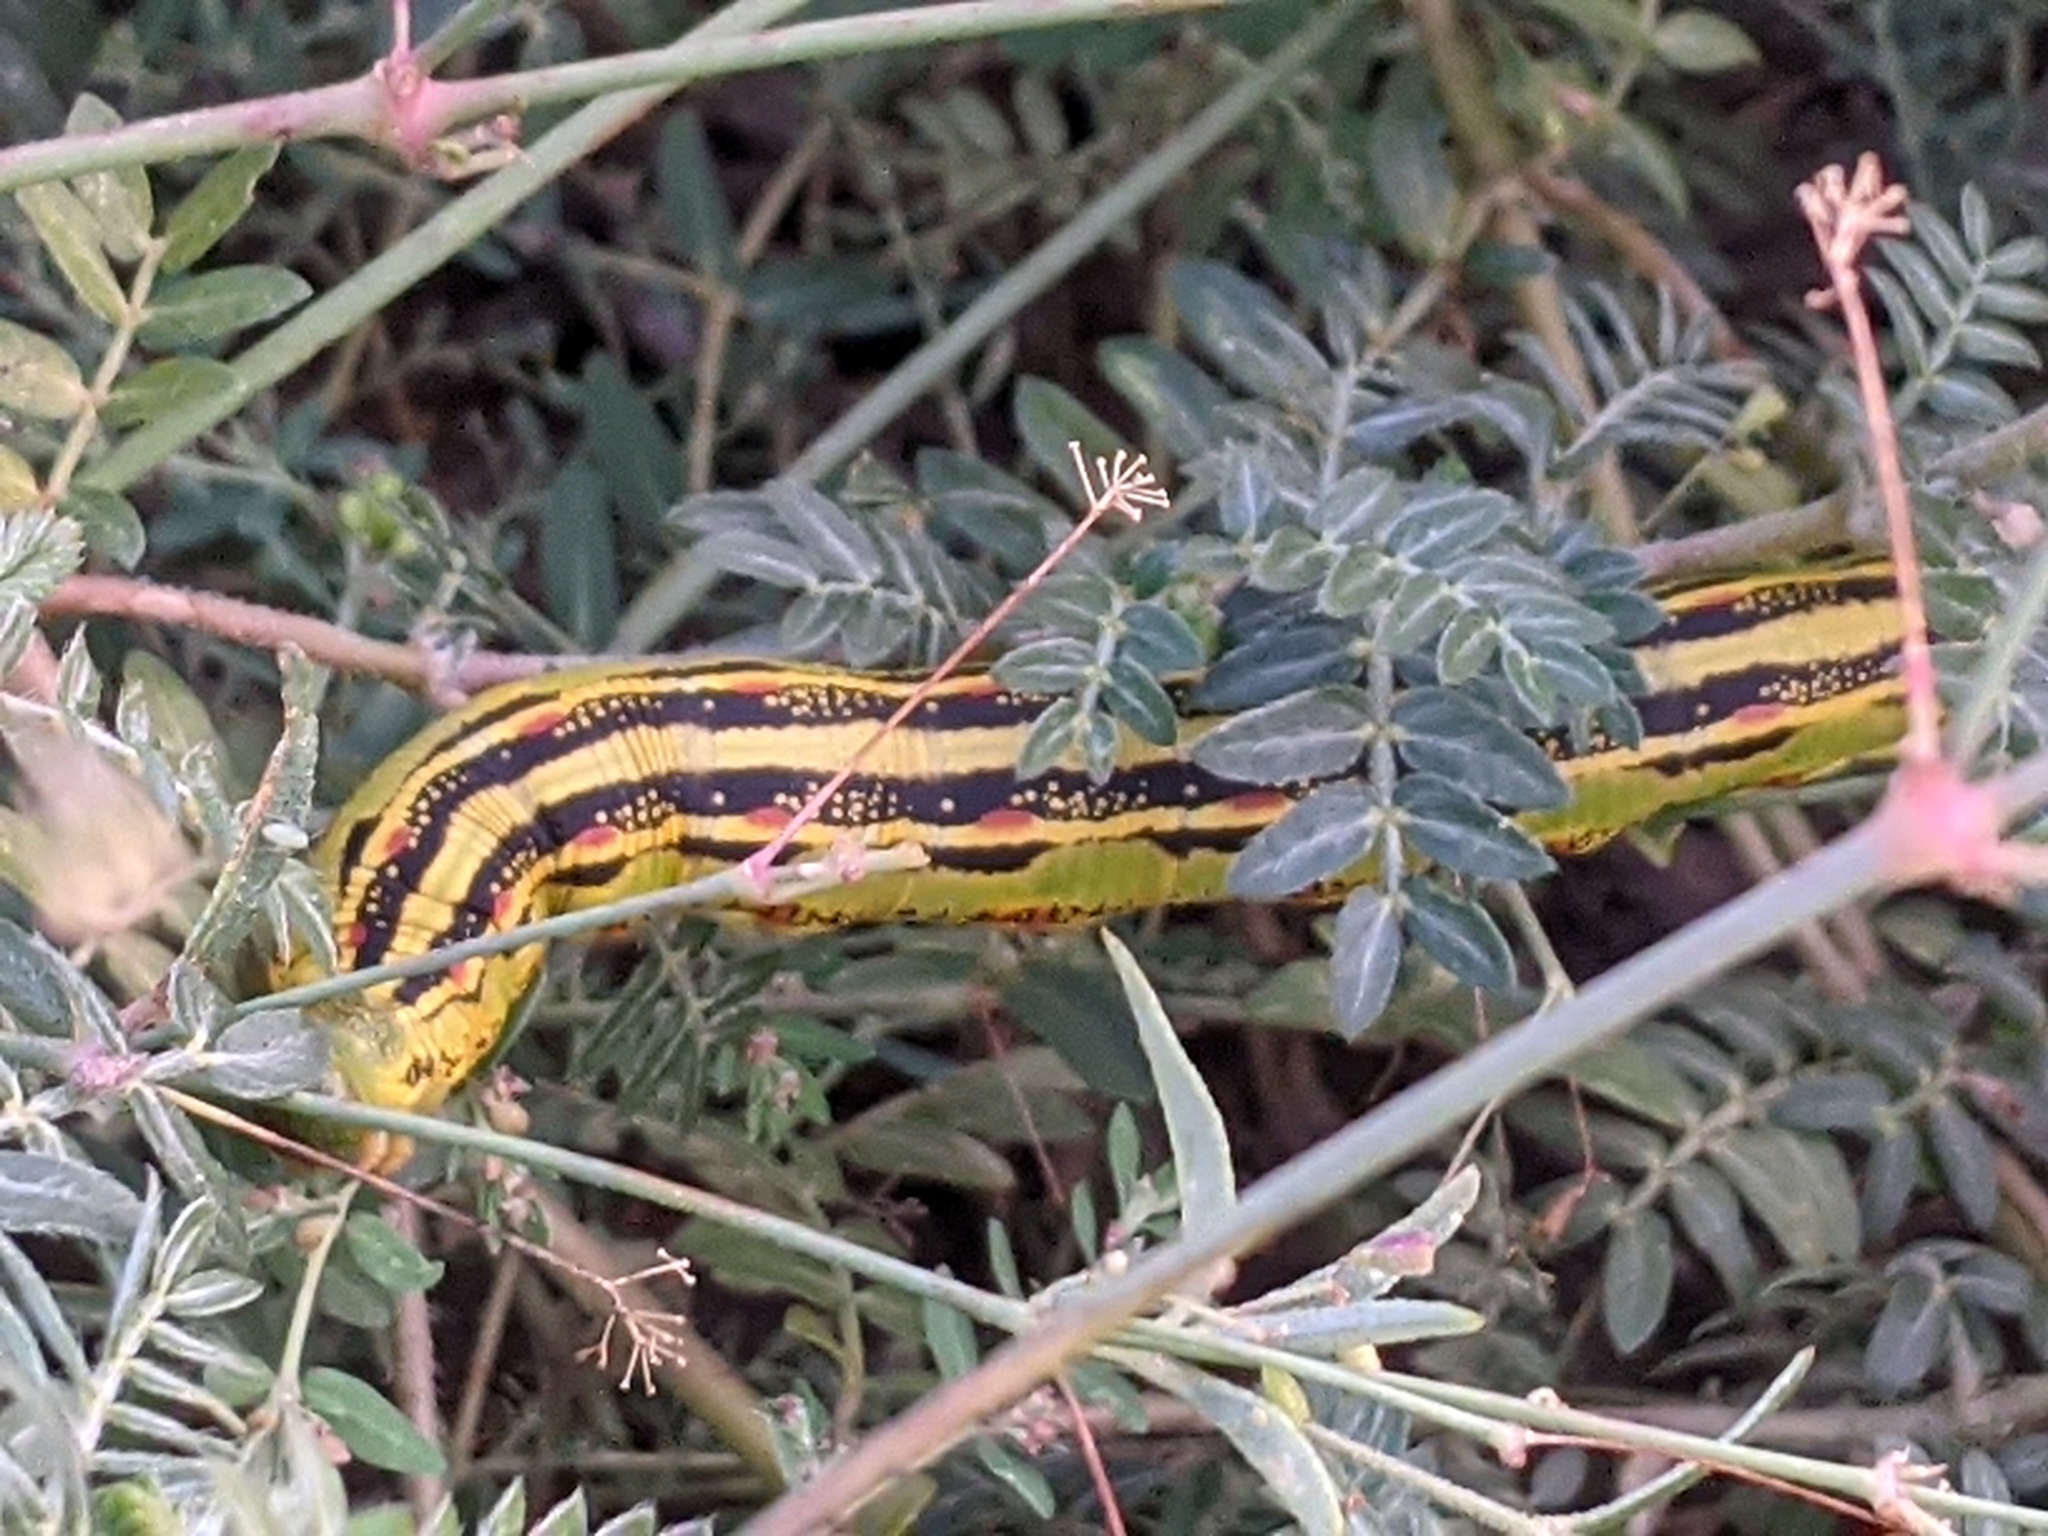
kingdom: Animalia
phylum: Arthropoda
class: Insecta
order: Lepidoptera
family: Sphingidae
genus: Hyles
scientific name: Hyles lineata
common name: White-lined sphinx
